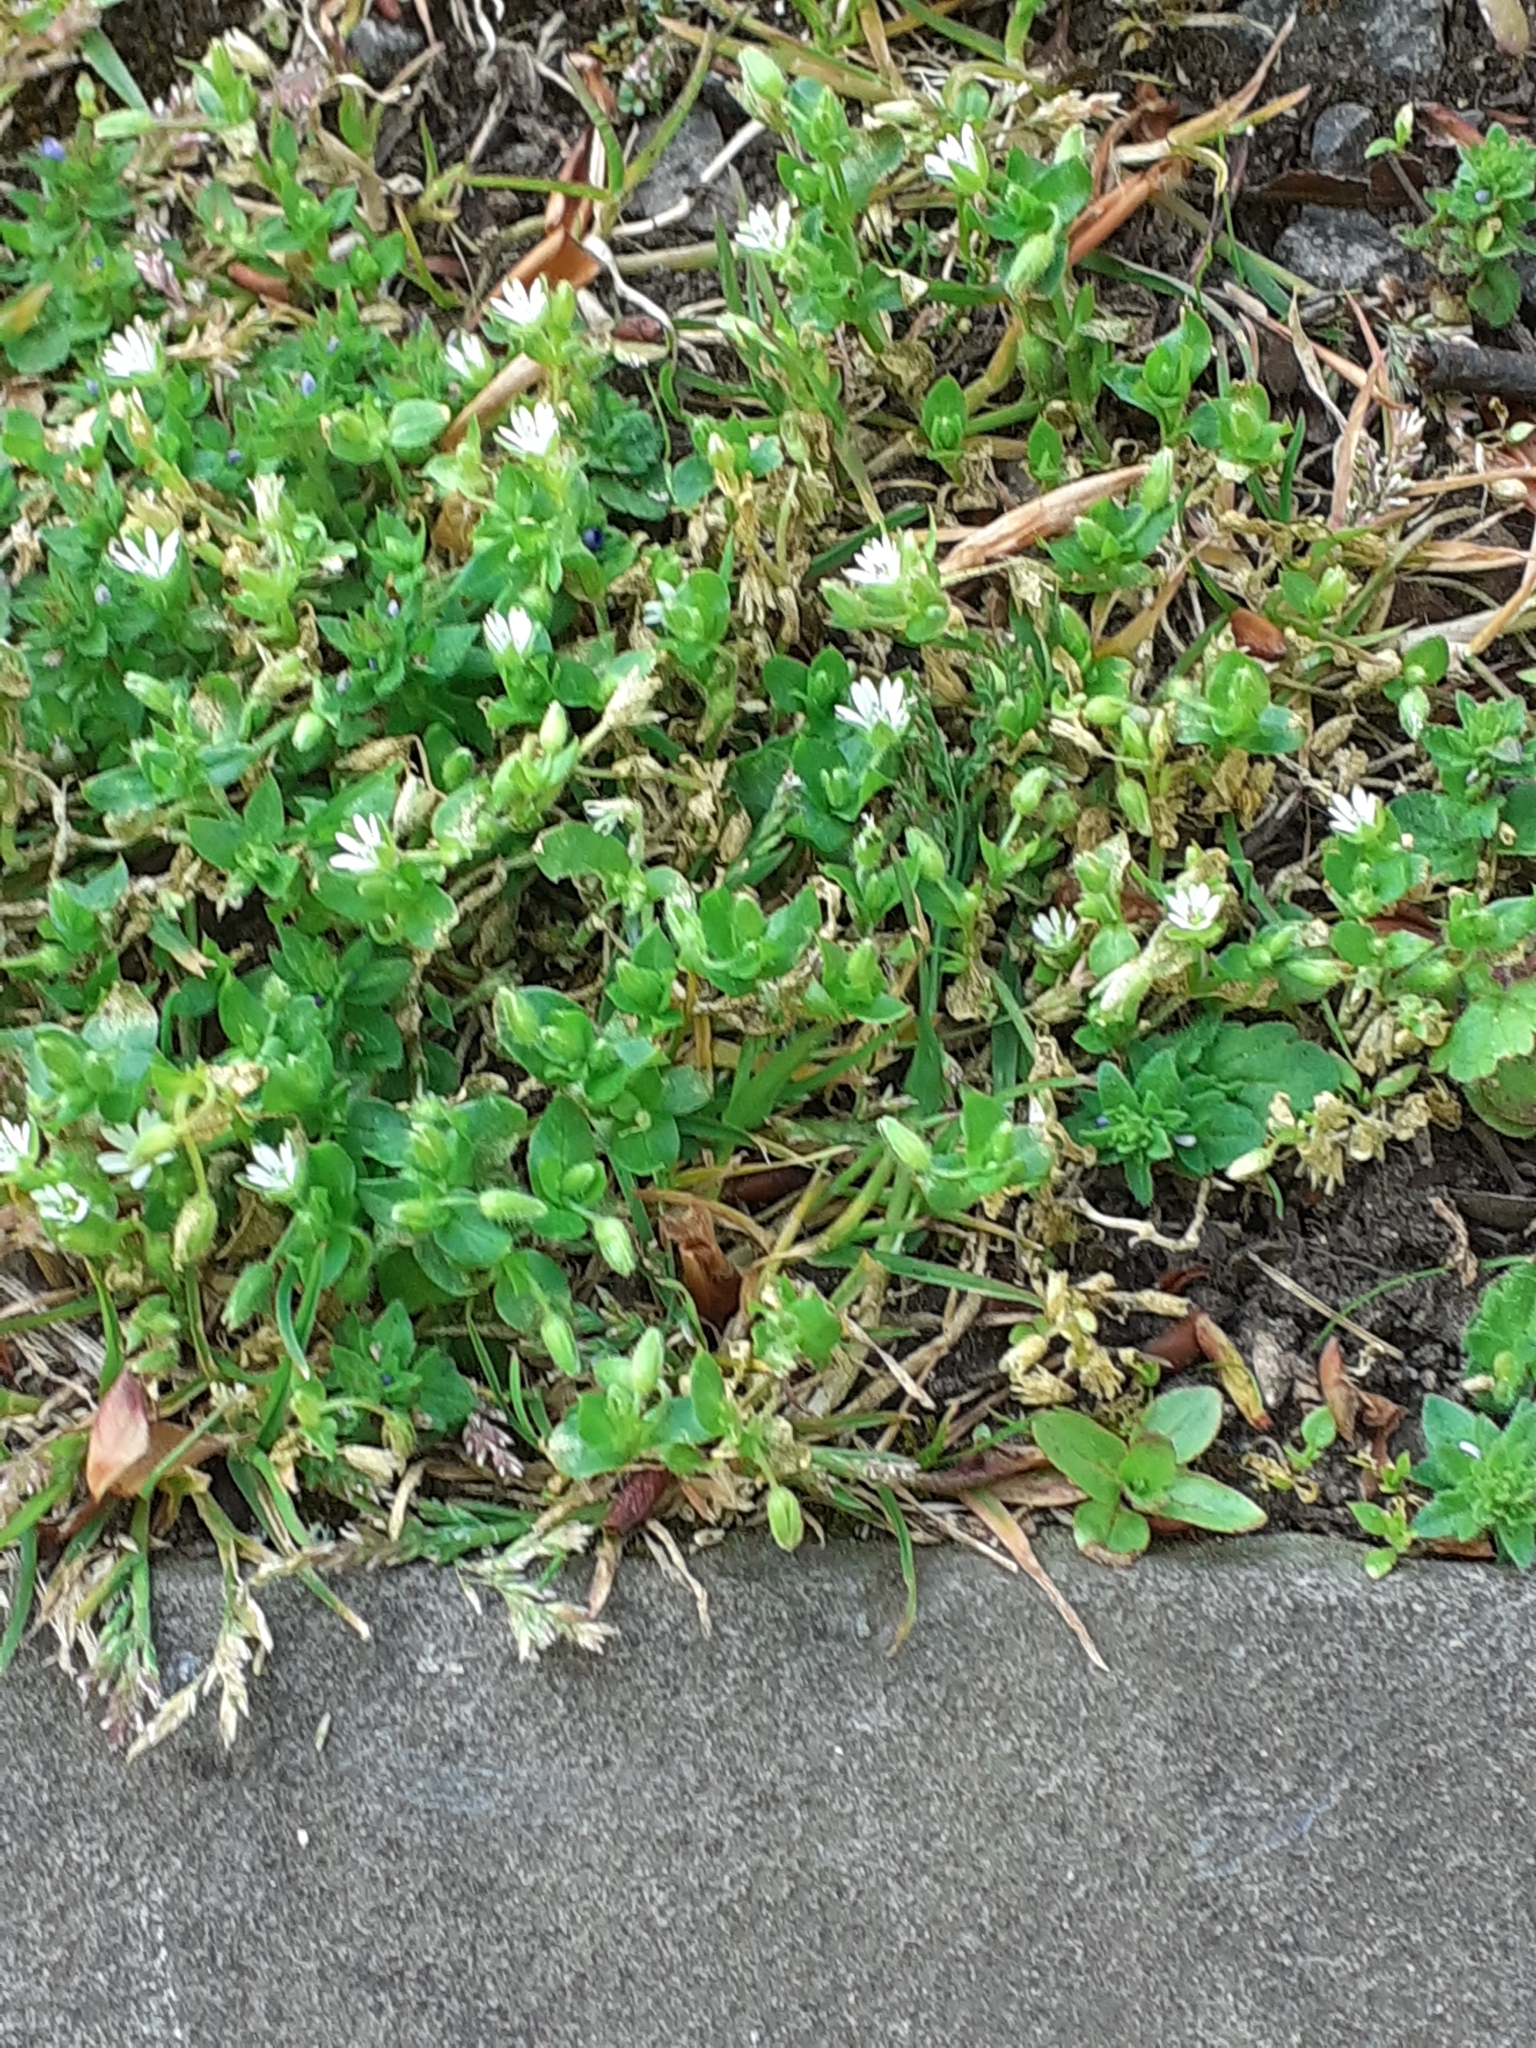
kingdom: Plantae
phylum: Tracheophyta
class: Magnoliopsida
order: Caryophyllales
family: Caryophyllaceae
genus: Stellaria
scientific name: Stellaria media
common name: Common chickweed
